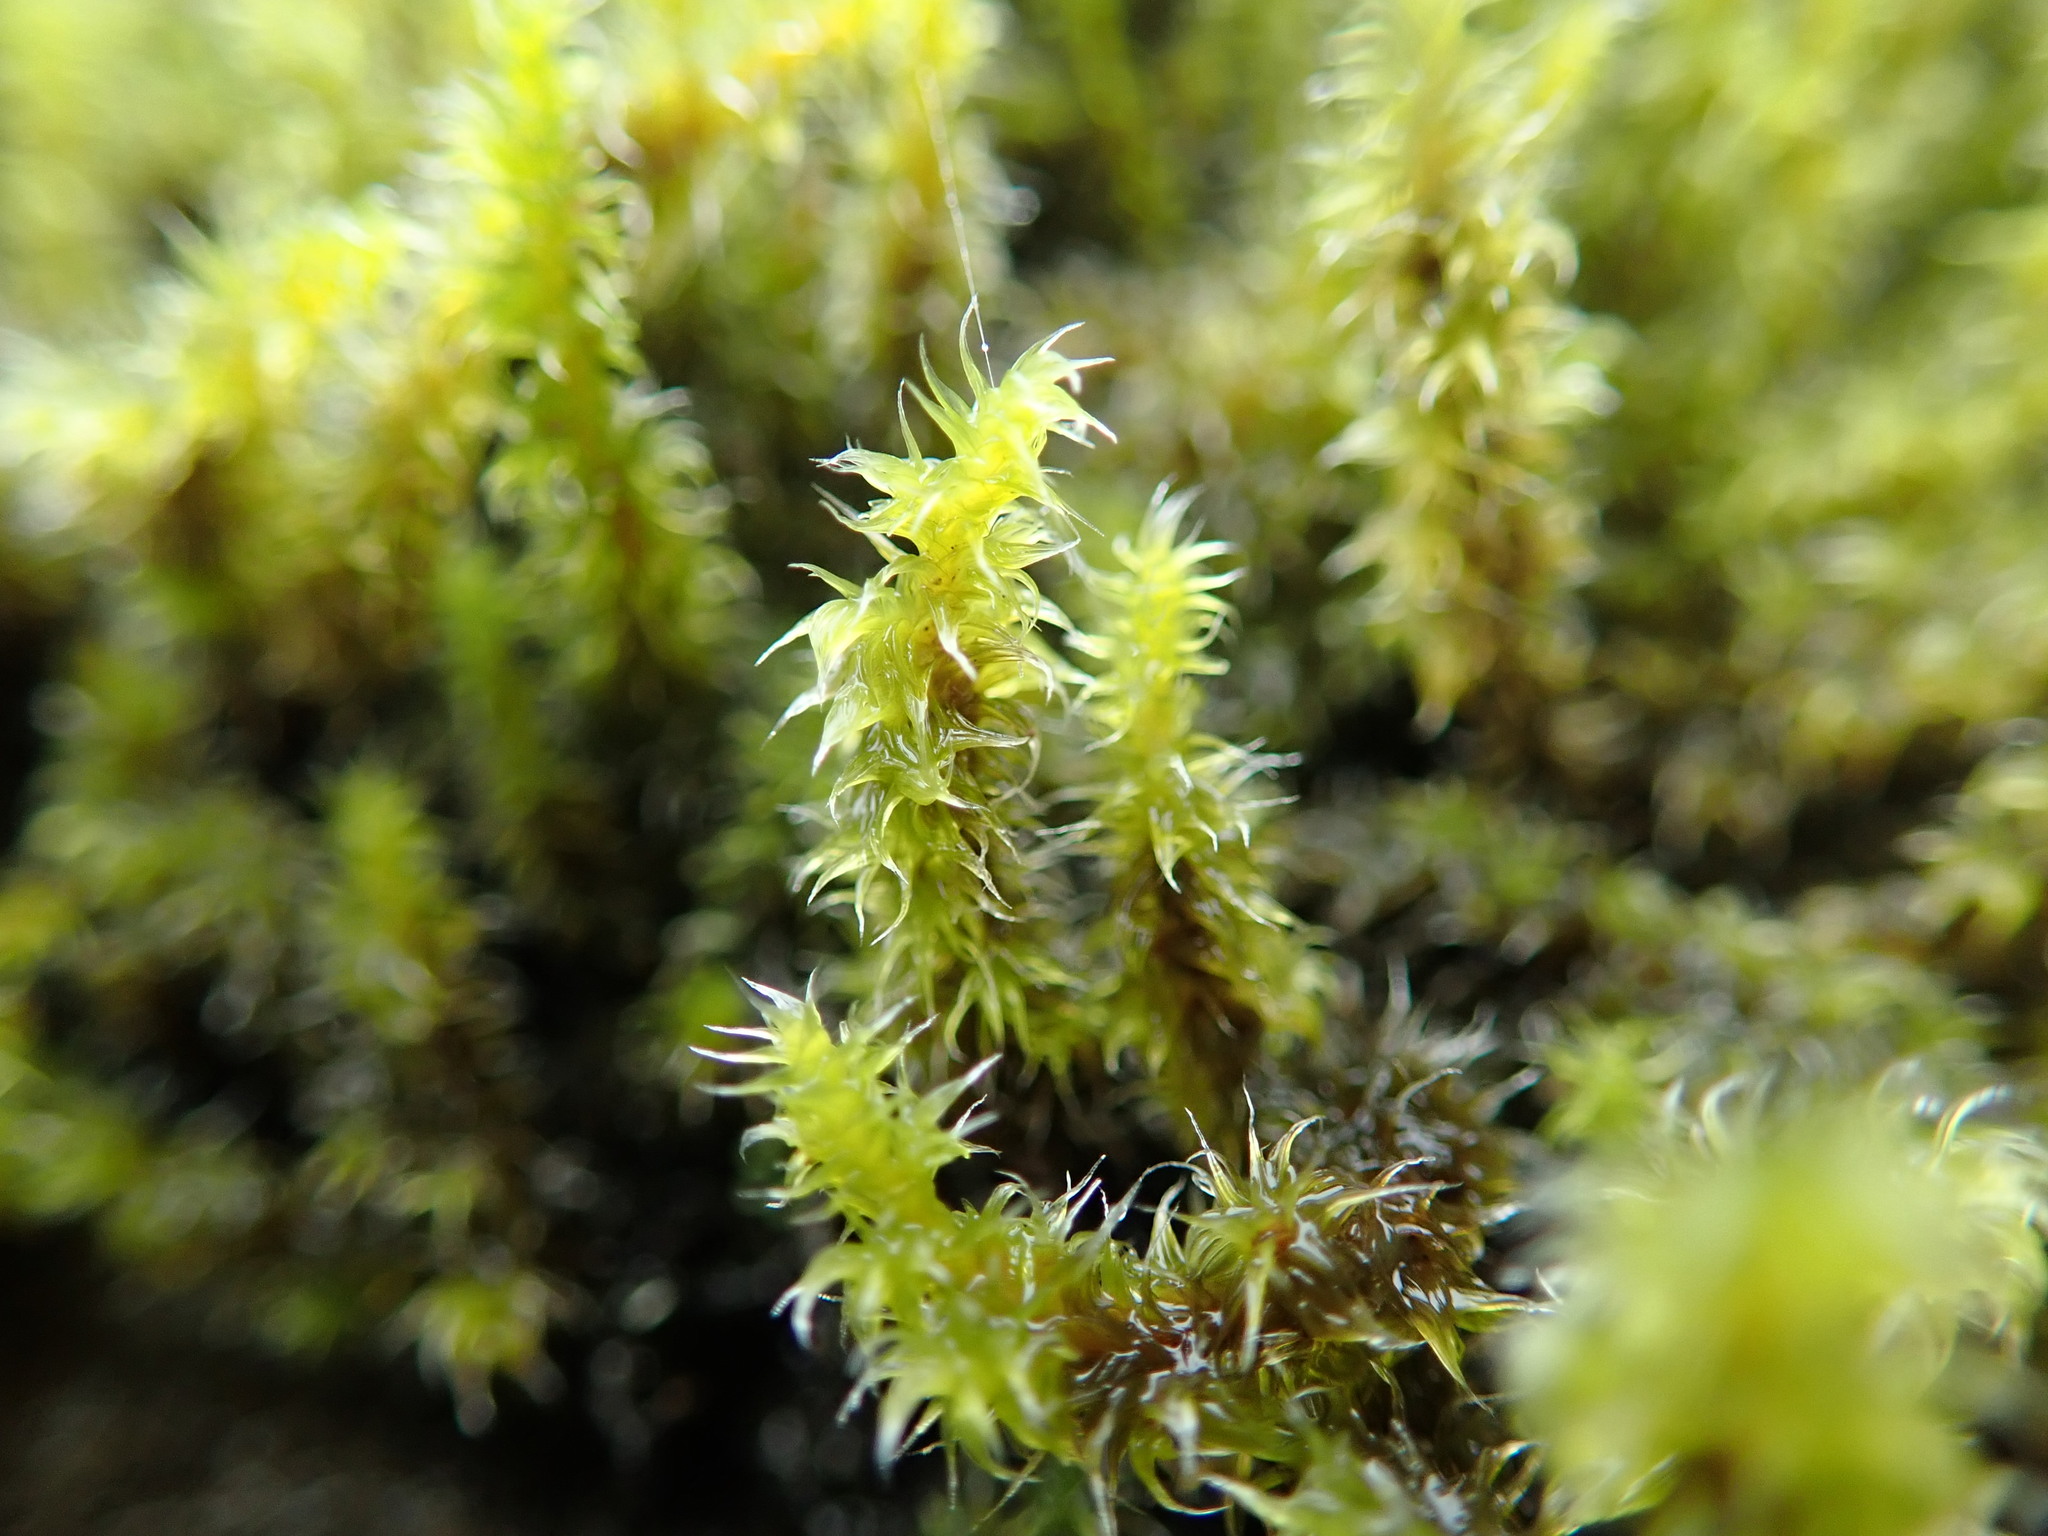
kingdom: Plantae
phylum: Bryophyta
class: Bryopsida
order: Grimmiales
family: Grimmiaceae
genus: Niphotrichum
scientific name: Niphotrichum elongatum
